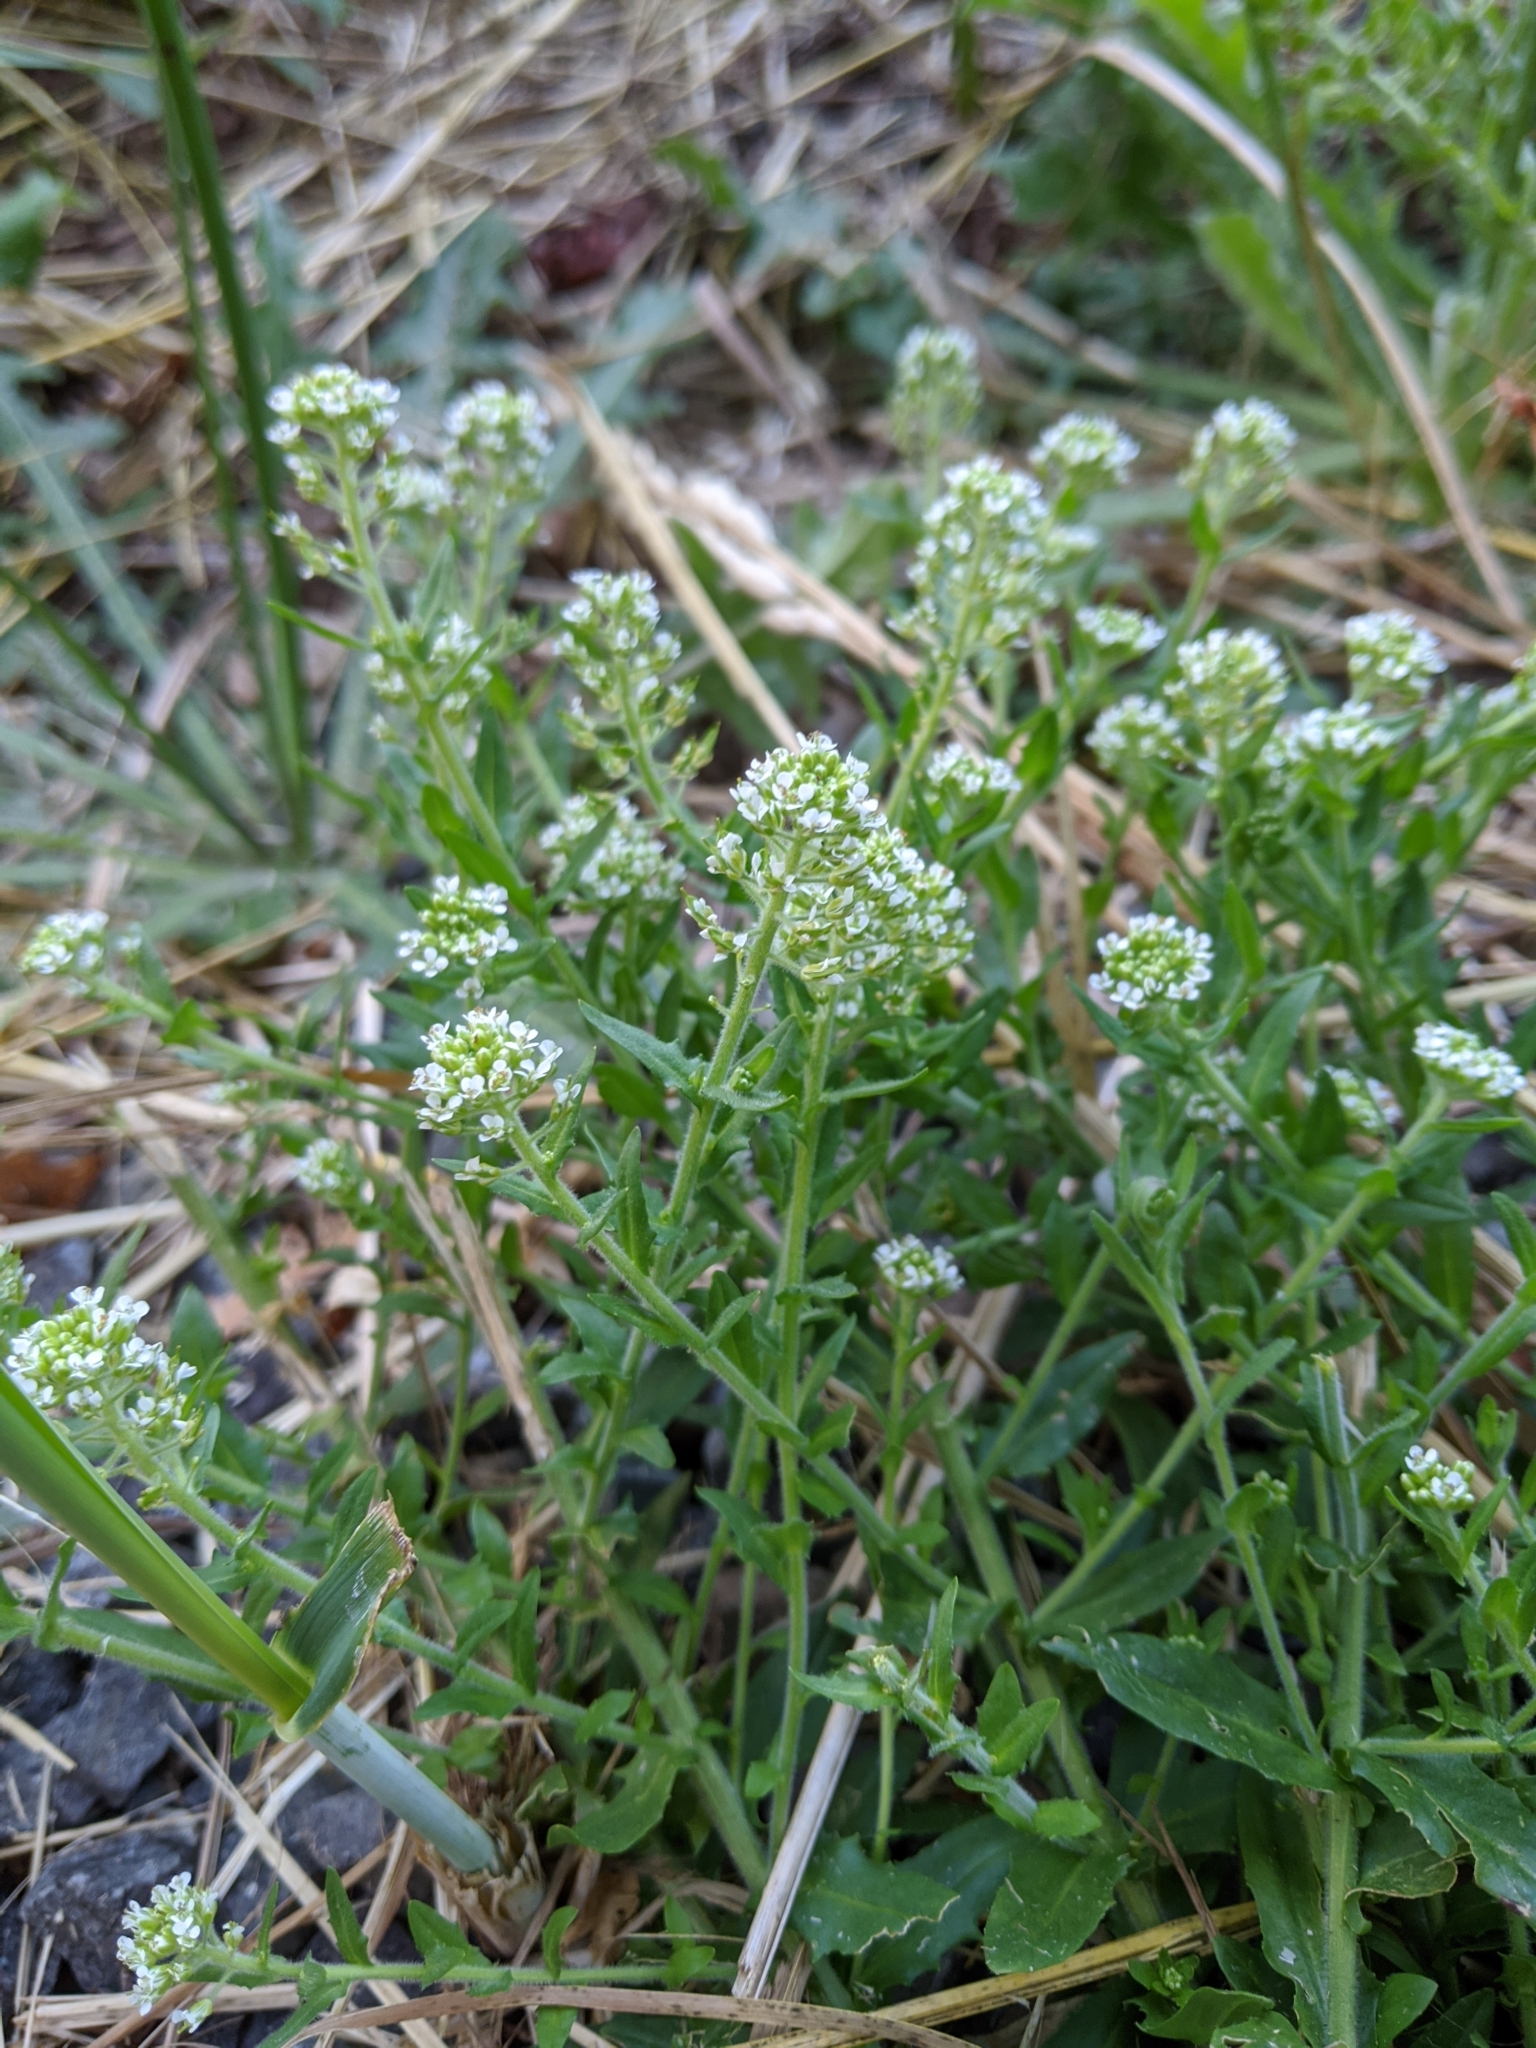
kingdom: Plantae
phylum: Tracheophyta
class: Magnoliopsida
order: Brassicales
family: Brassicaceae
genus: Lepidium
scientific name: Lepidium campestre
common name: Field pepperwort
